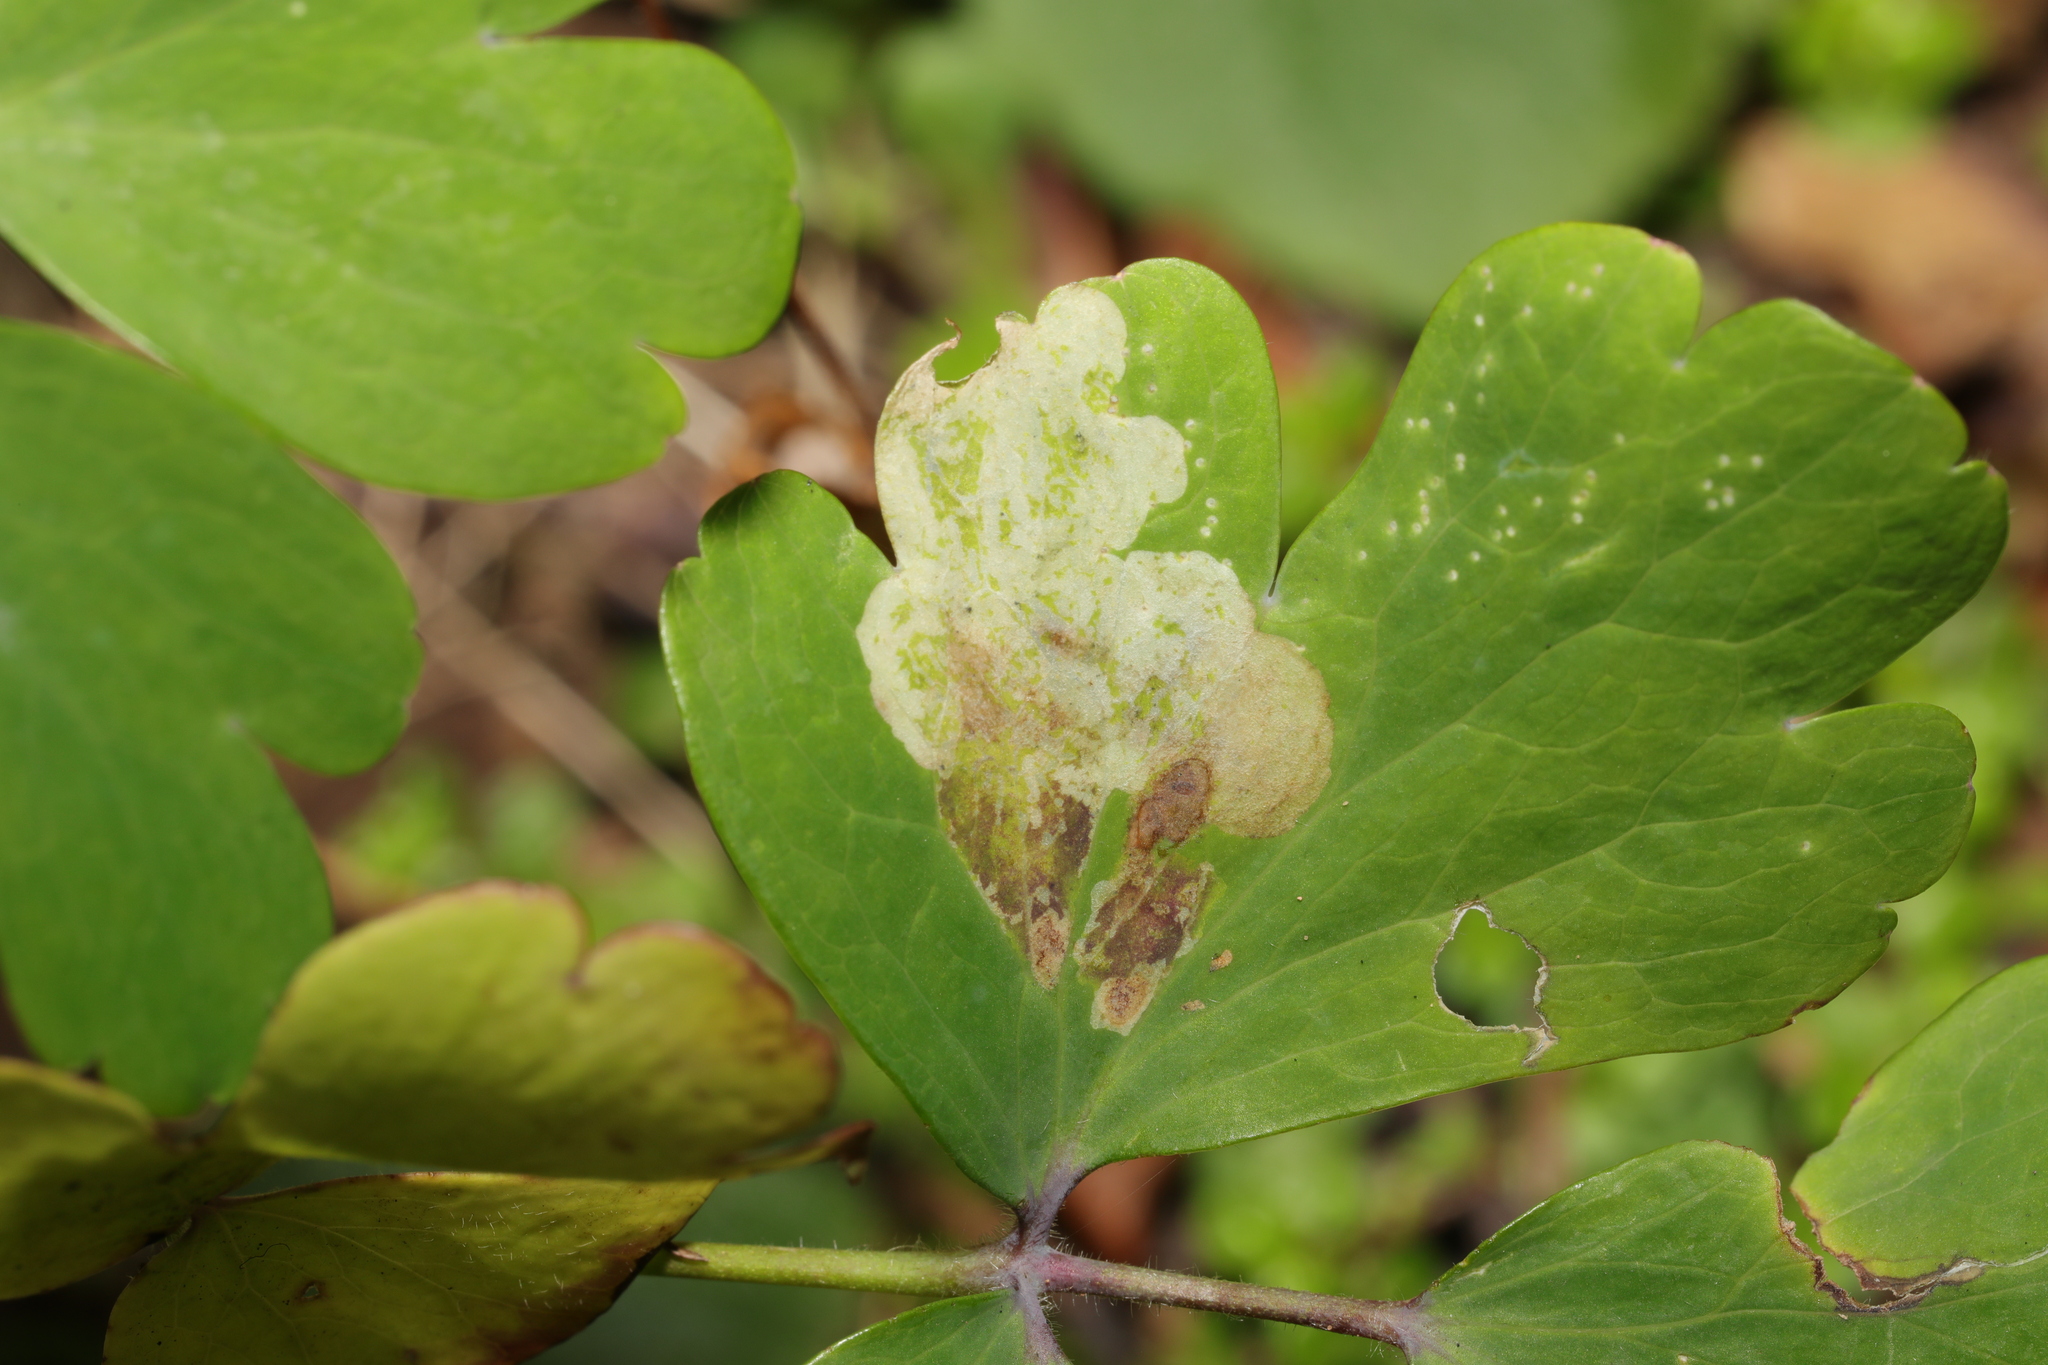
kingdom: Animalia
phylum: Arthropoda
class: Insecta
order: Diptera
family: Agromyzidae
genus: Phytomyza
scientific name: Phytomyza aquilegiae
